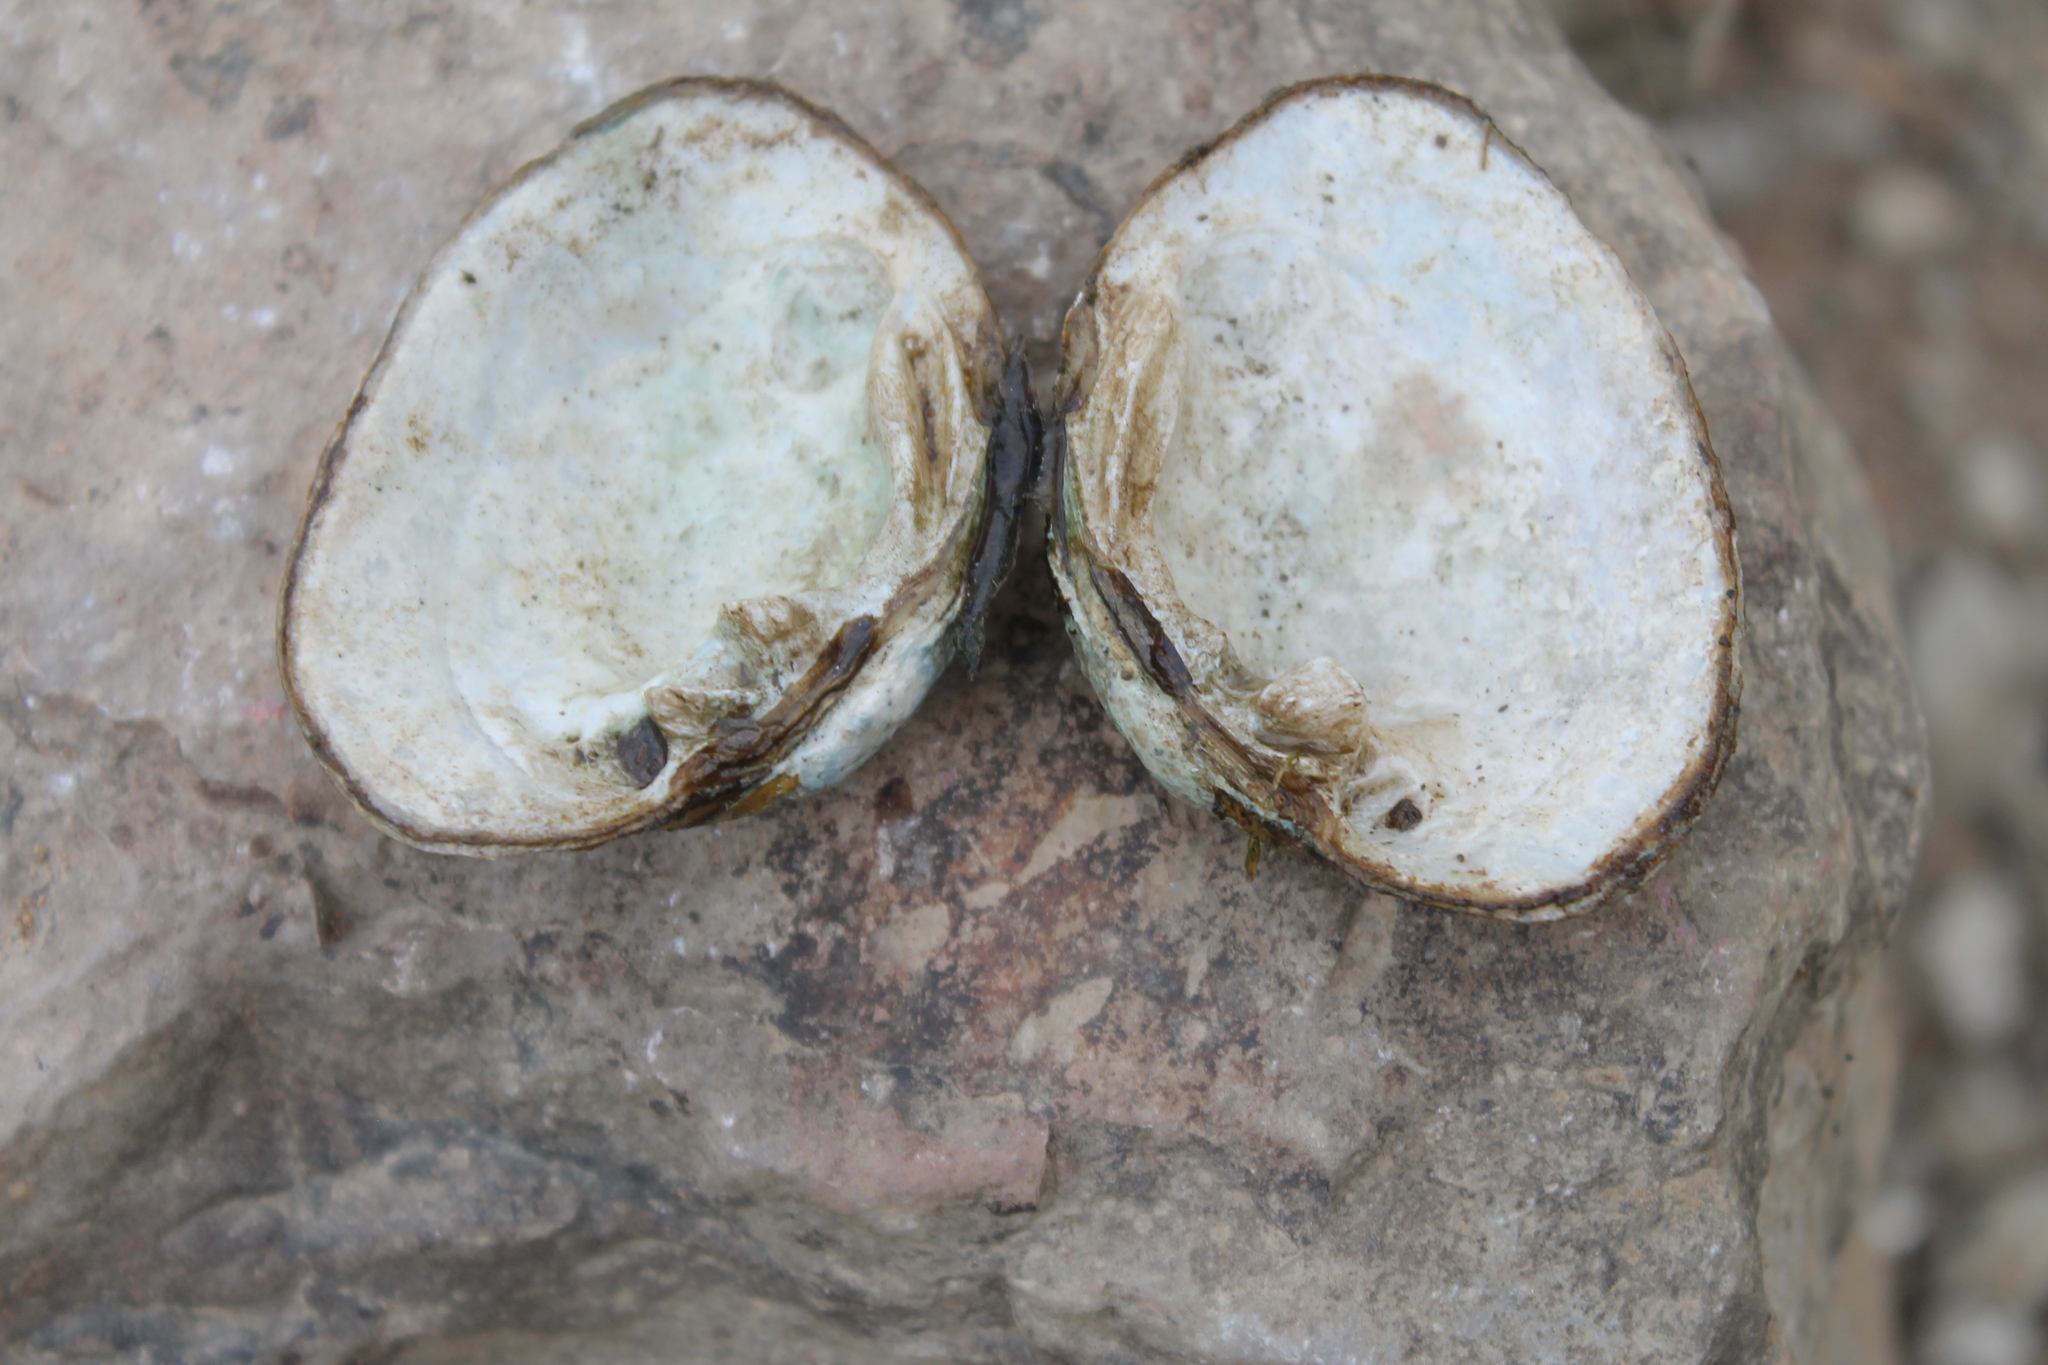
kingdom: Animalia
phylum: Mollusca
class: Bivalvia
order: Unionida
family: Unionidae
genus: Epioblasma
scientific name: Epioblasma brevidens
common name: Cumberlandian combshell
